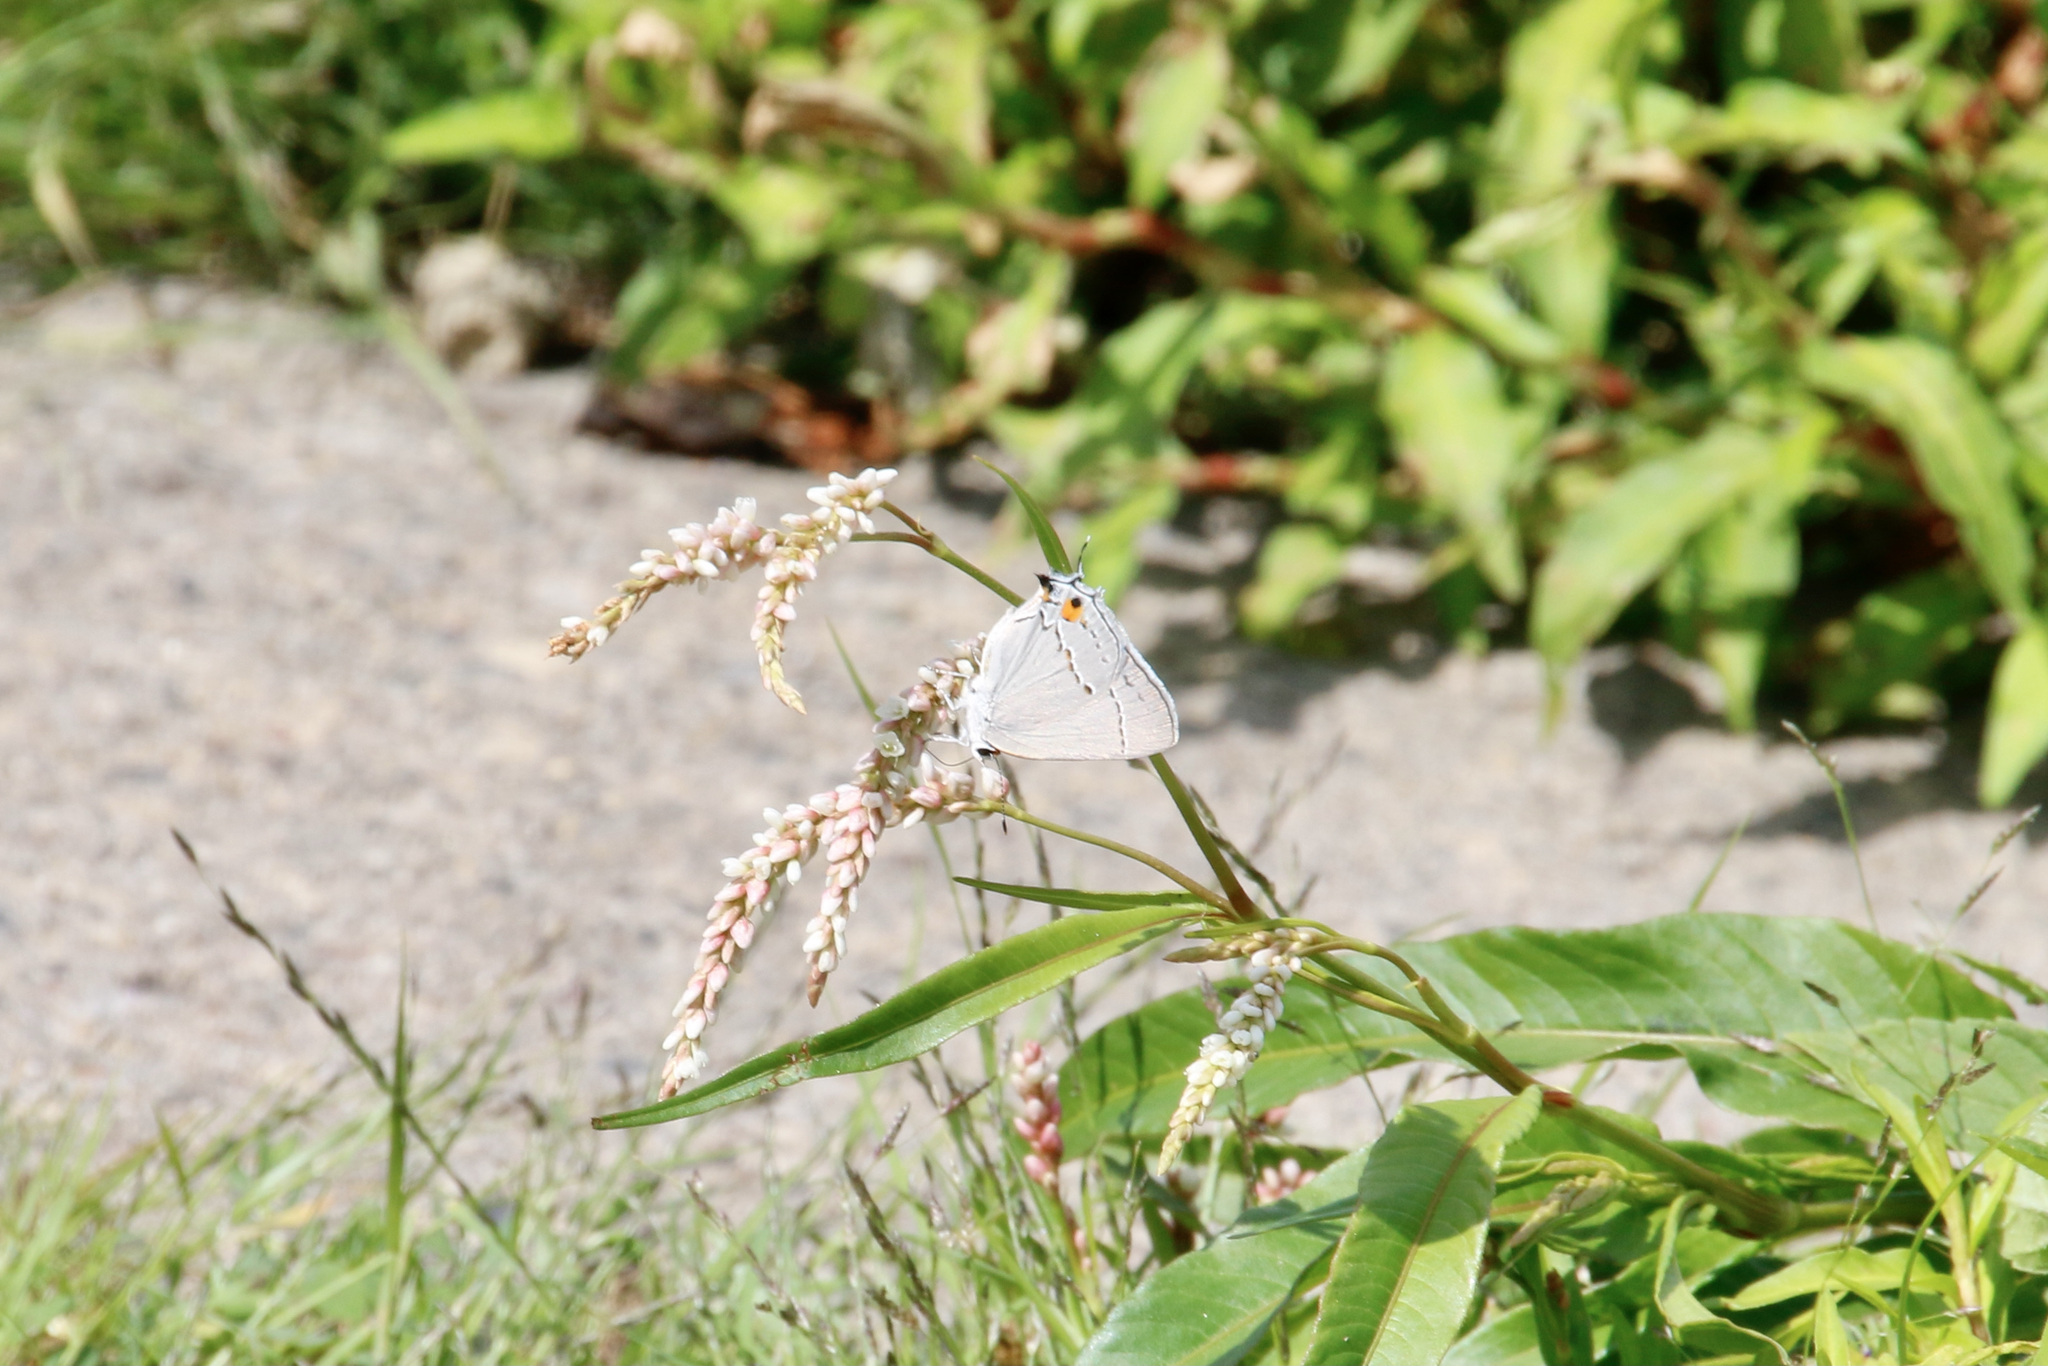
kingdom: Animalia
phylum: Arthropoda
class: Insecta
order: Lepidoptera
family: Lycaenidae
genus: Strymon
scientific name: Strymon melinus
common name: Gray hairstreak
